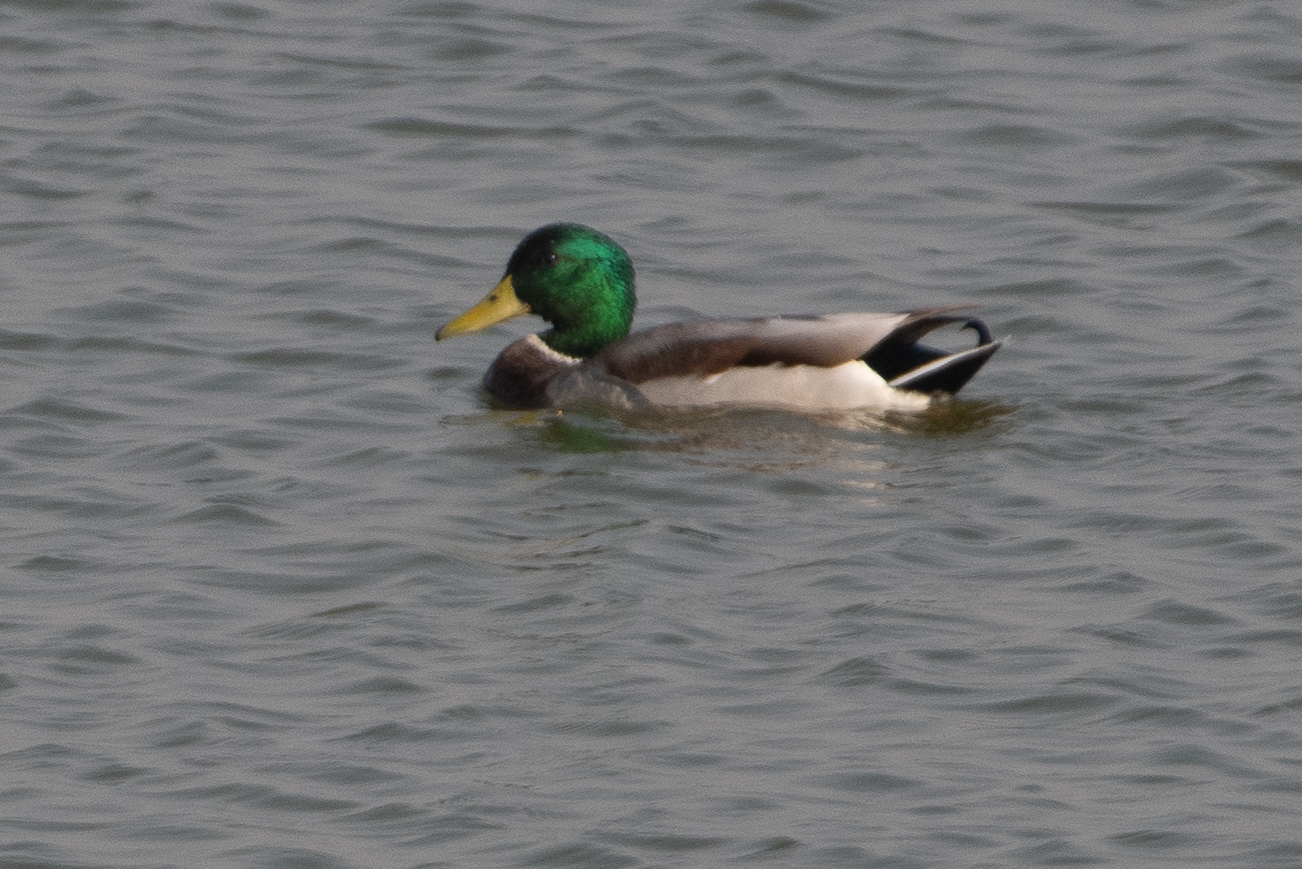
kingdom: Animalia
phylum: Chordata
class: Aves
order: Anseriformes
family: Anatidae
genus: Anas
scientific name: Anas platyrhynchos
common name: Mallard
